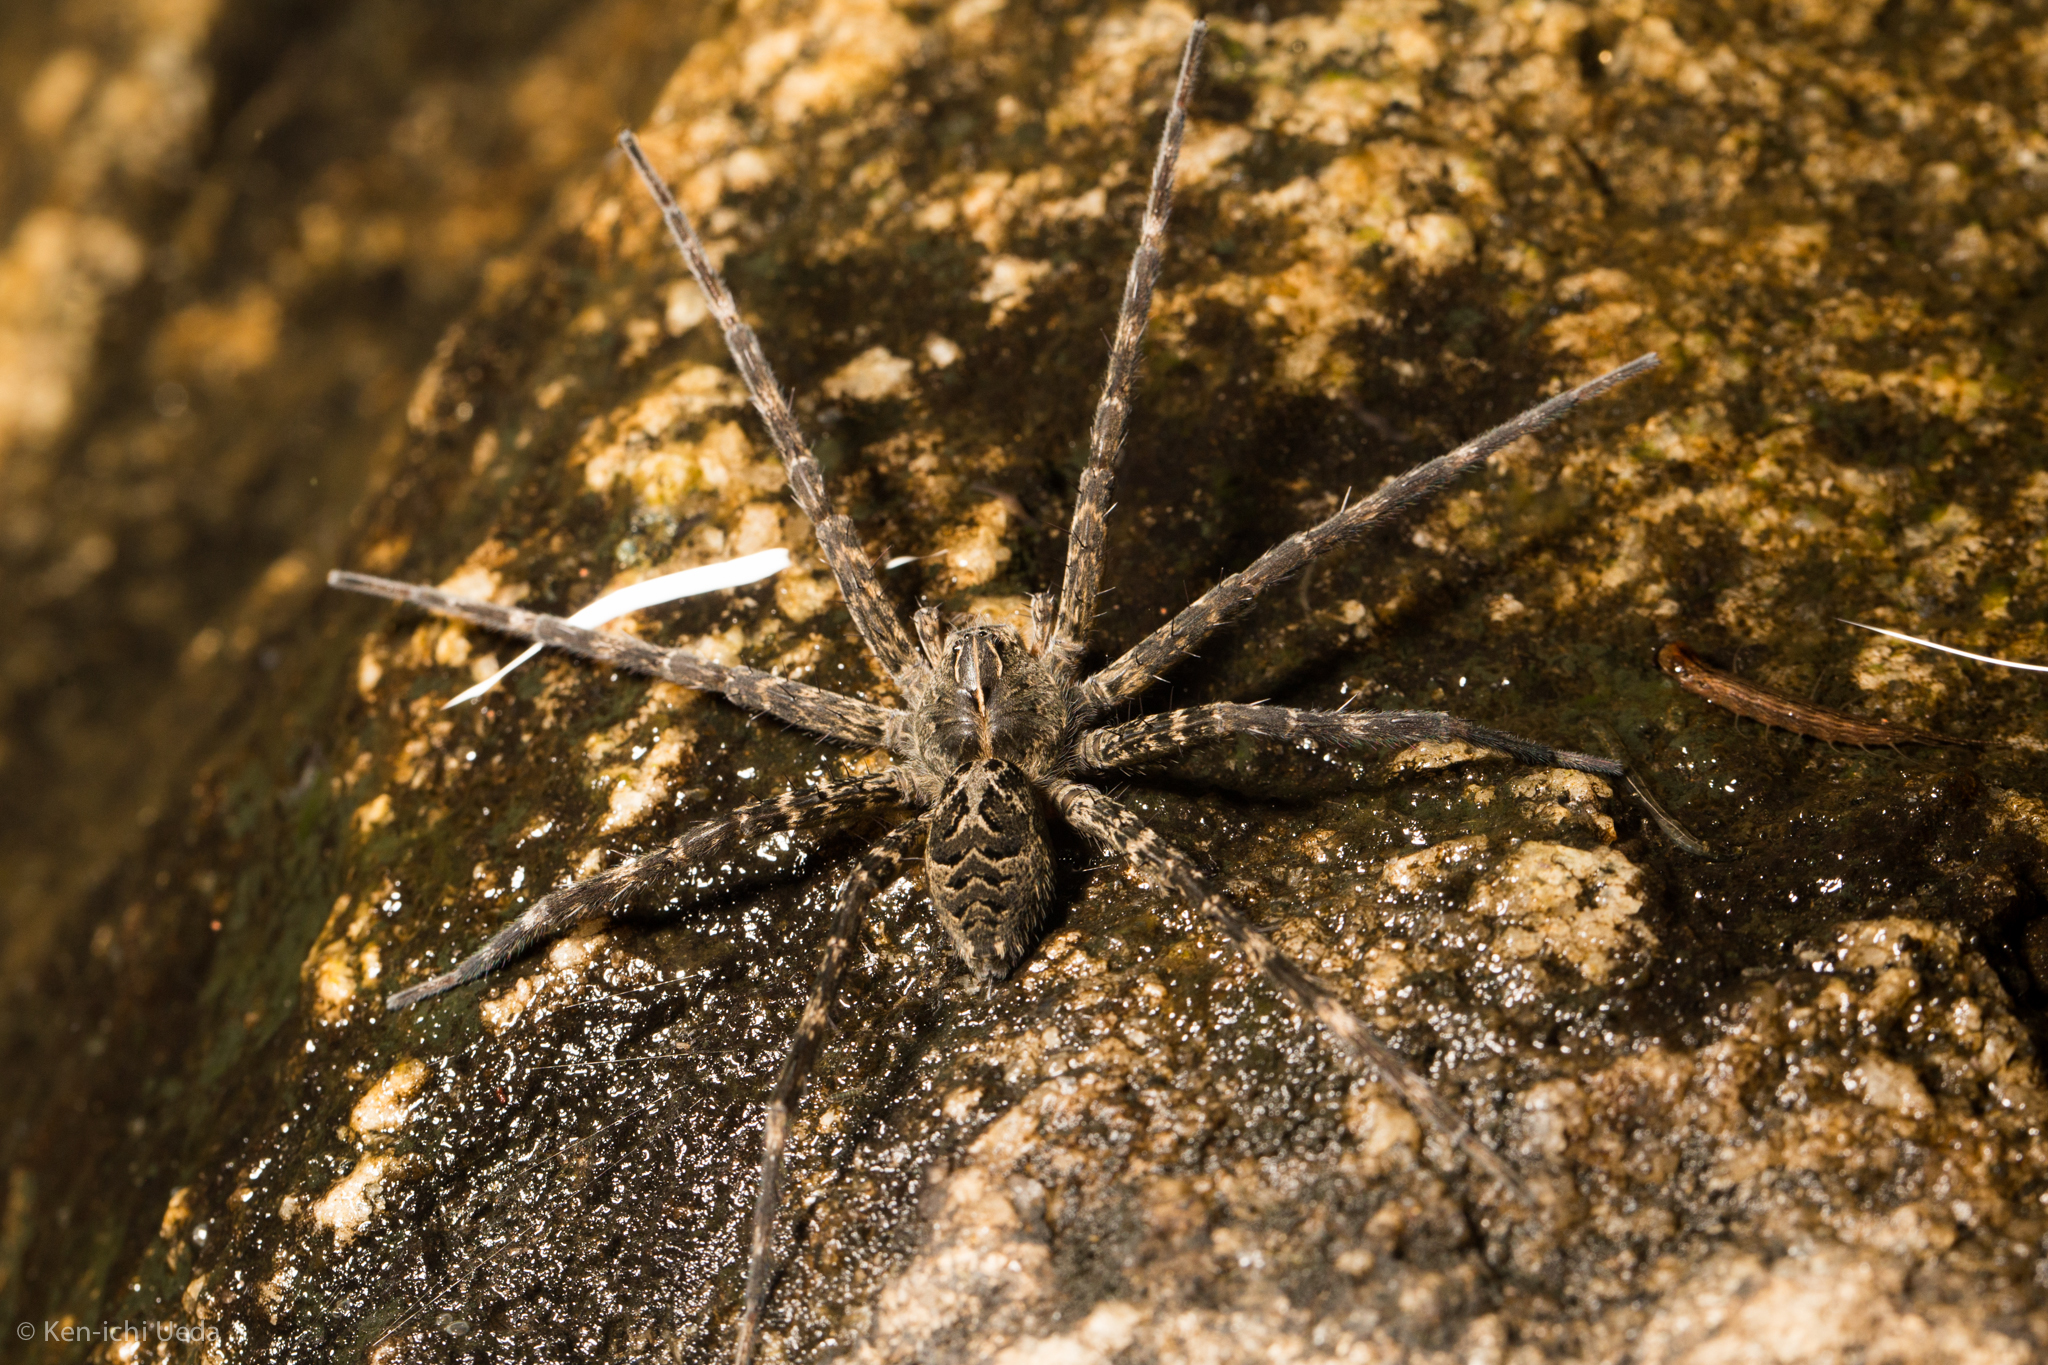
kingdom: Animalia
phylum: Arthropoda
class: Arachnida
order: Araneae
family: Pisauridae
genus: Dolomedes
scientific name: Dolomedes scriptus
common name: Striped fishing spider
